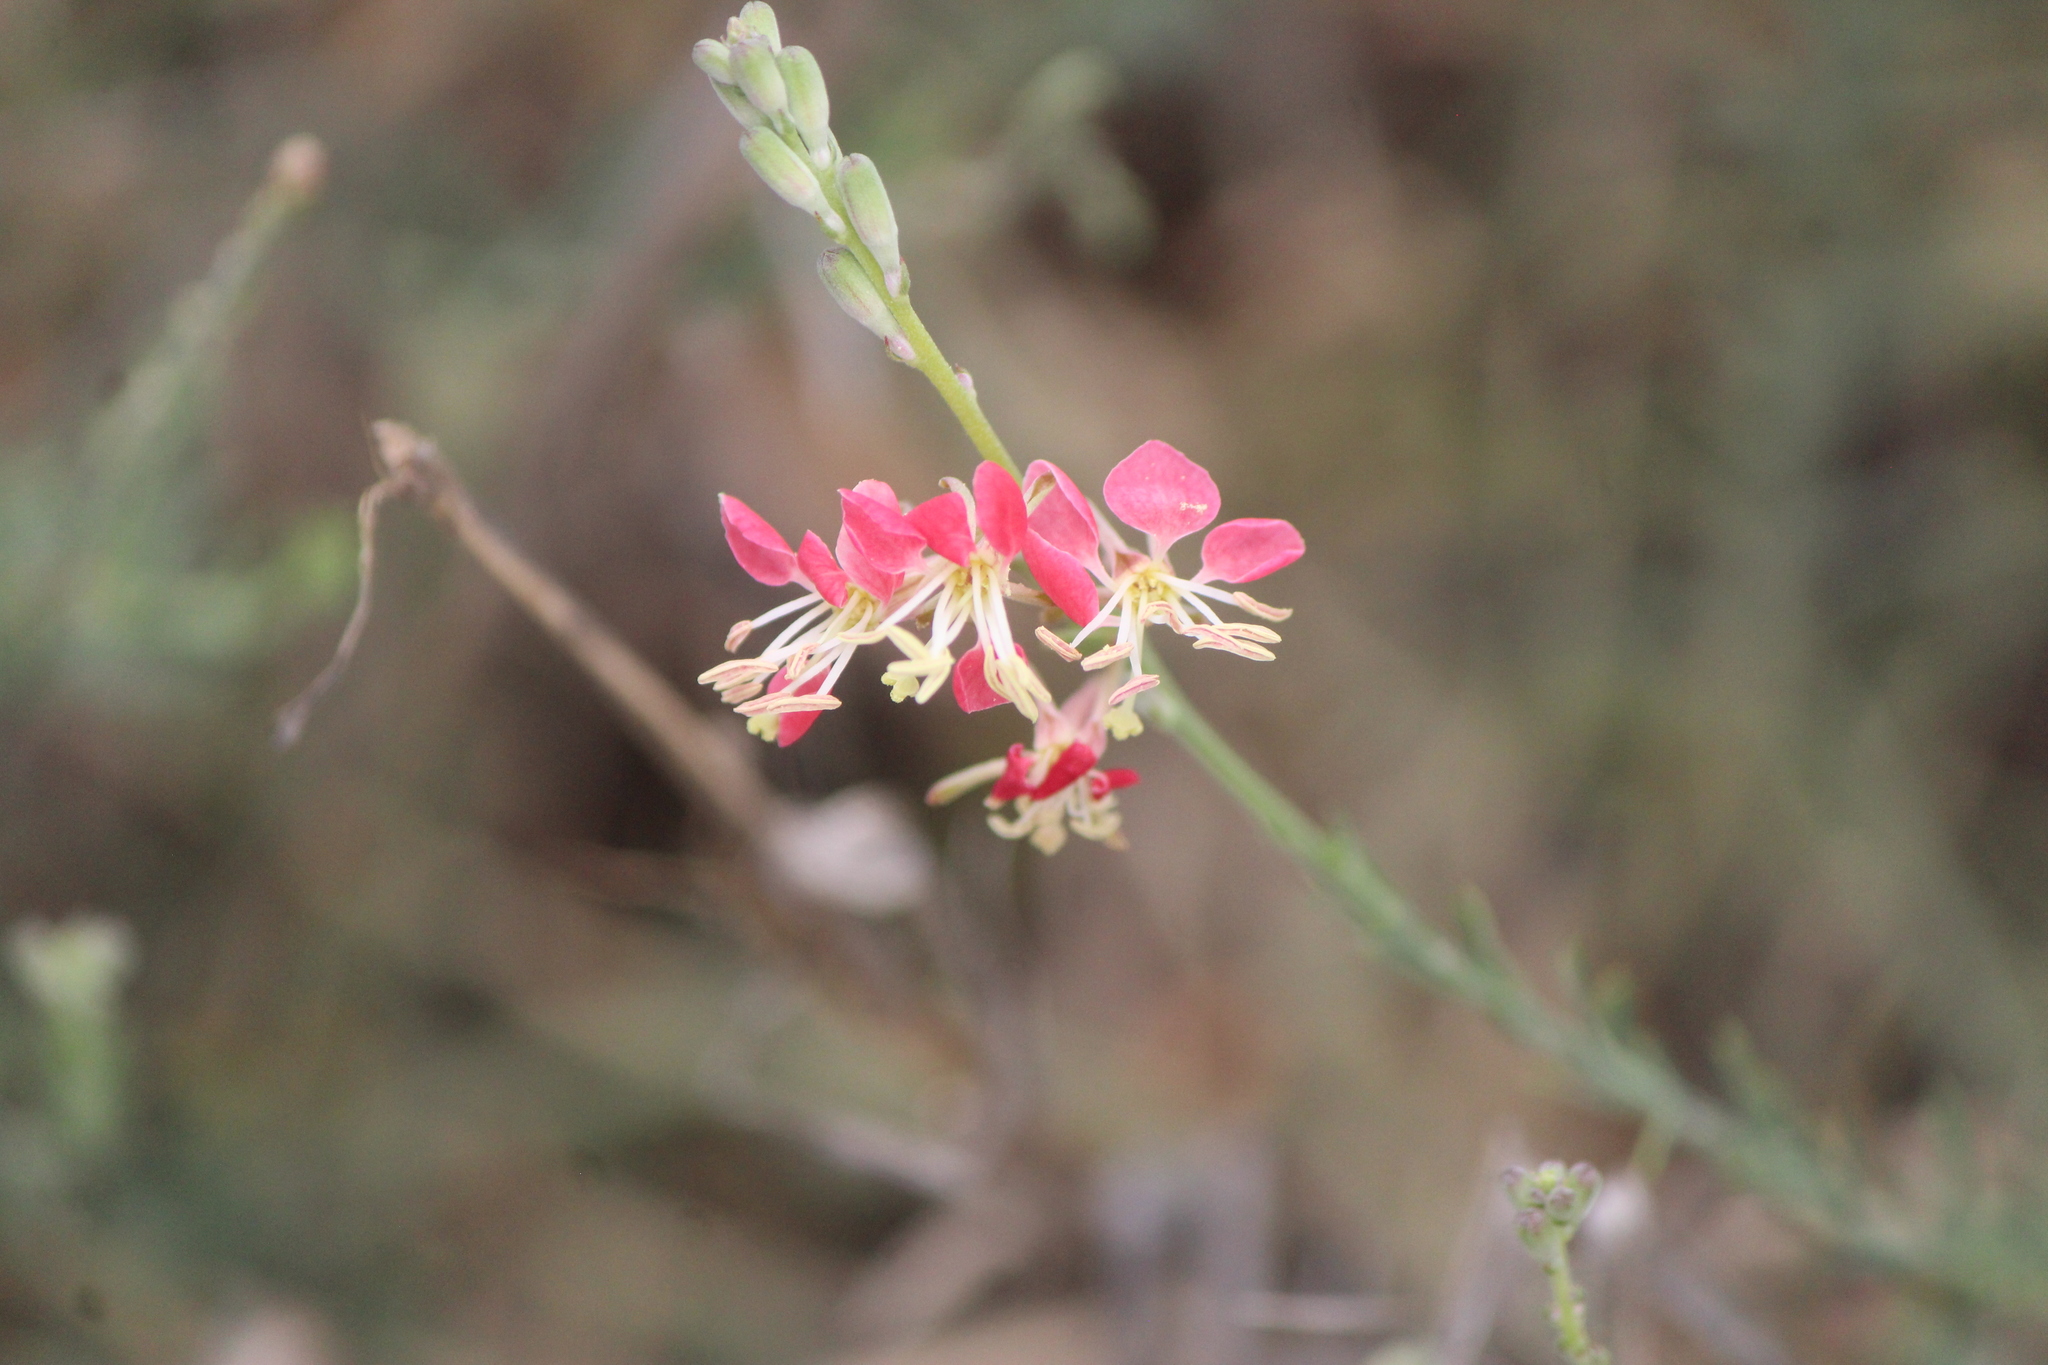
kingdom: Plantae
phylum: Tracheophyta
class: Magnoliopsida
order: Myrtales
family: Onagraceae
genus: Oenothera
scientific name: Oenothera suffrutescens
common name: Scarlet beeblossom
